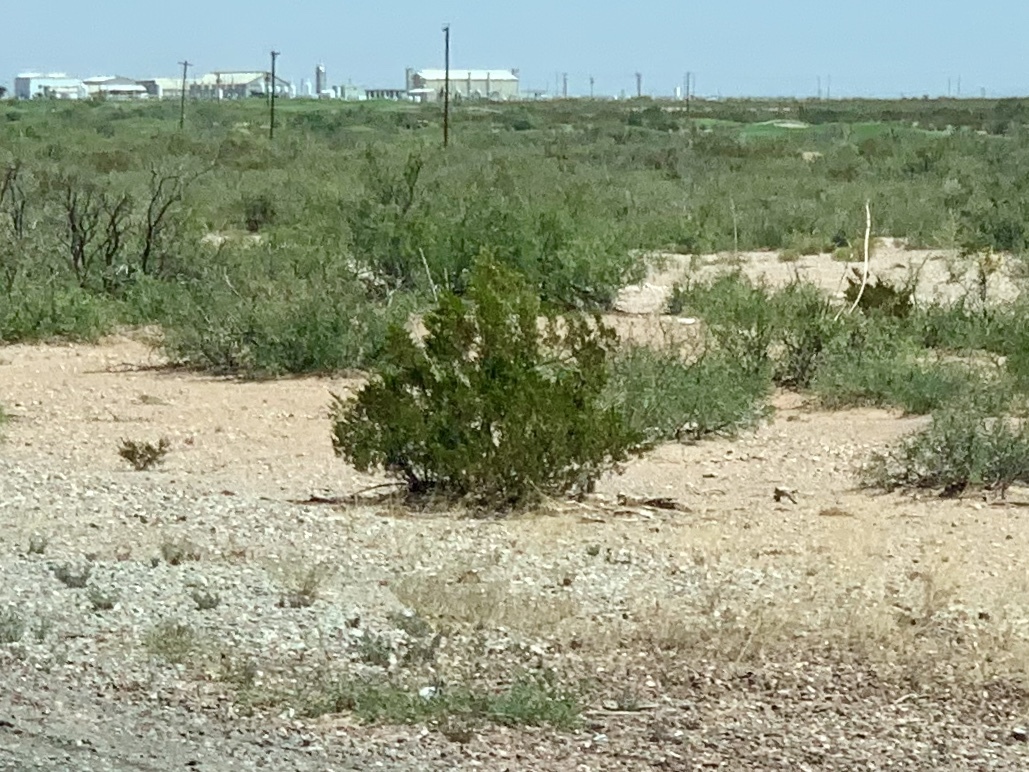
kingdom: Plantae
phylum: Tracheophyta
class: Magnoliopsida
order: Zygophyllales
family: Zygophyllaceae
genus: Larrea
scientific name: Larrea tridentata
